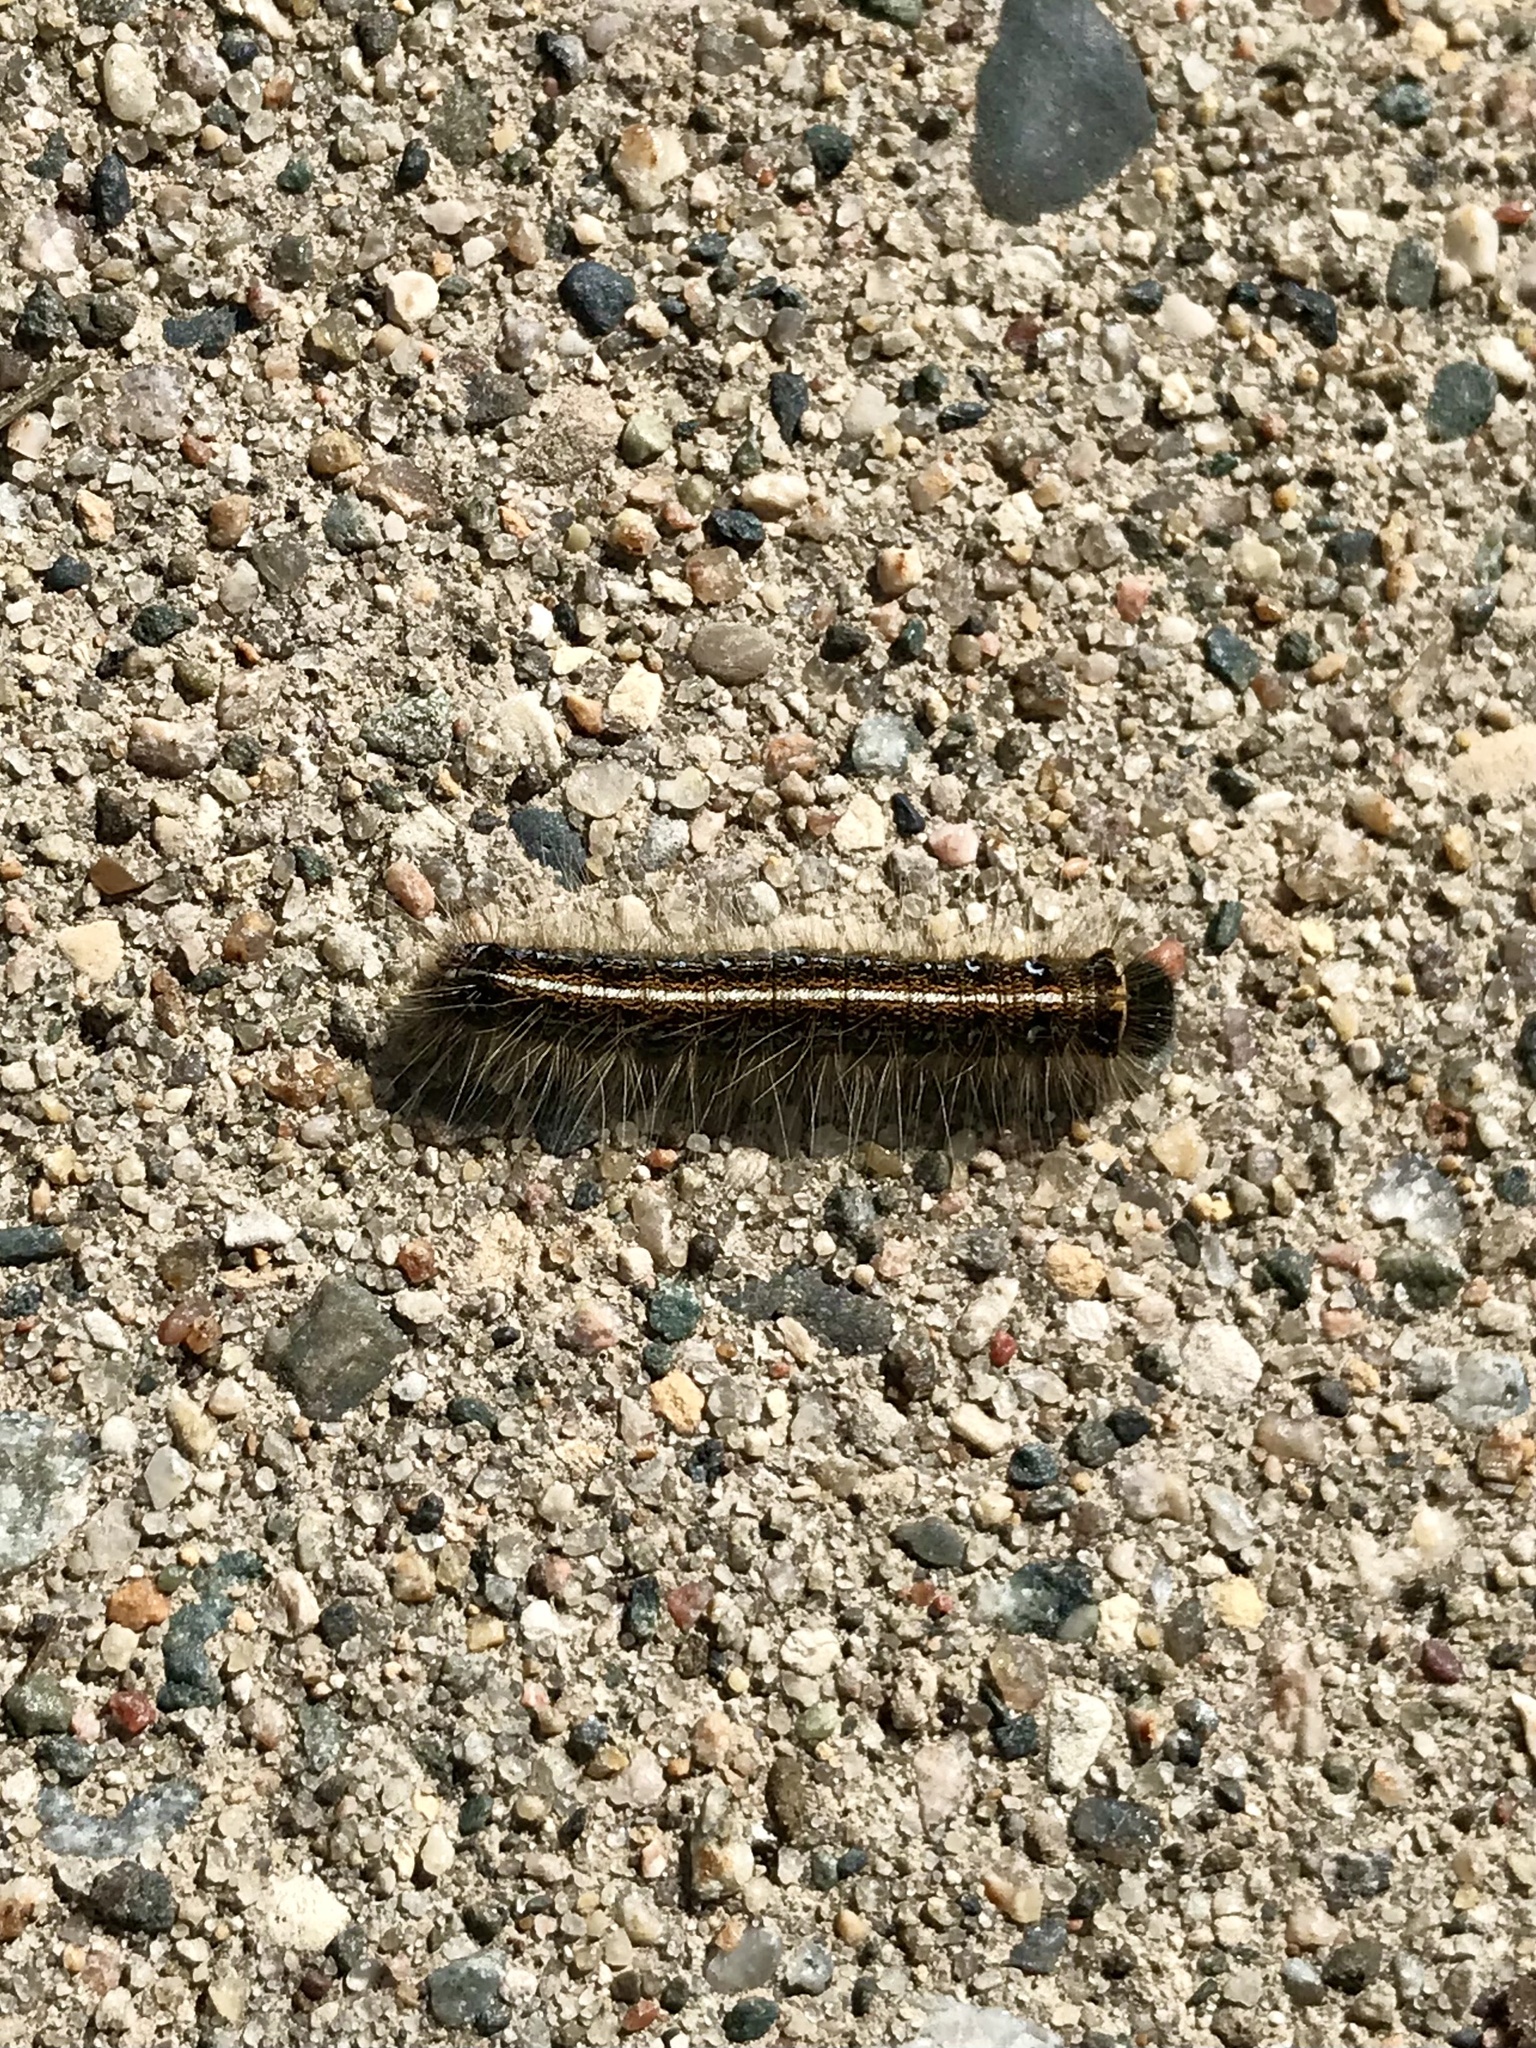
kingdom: Animalia
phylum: Arthropoda
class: Insecta
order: Lepidoptera
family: Lasiocampidae
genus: Malacosoma
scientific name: Malacosoma americana
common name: Eastern tent caterpillar moth
